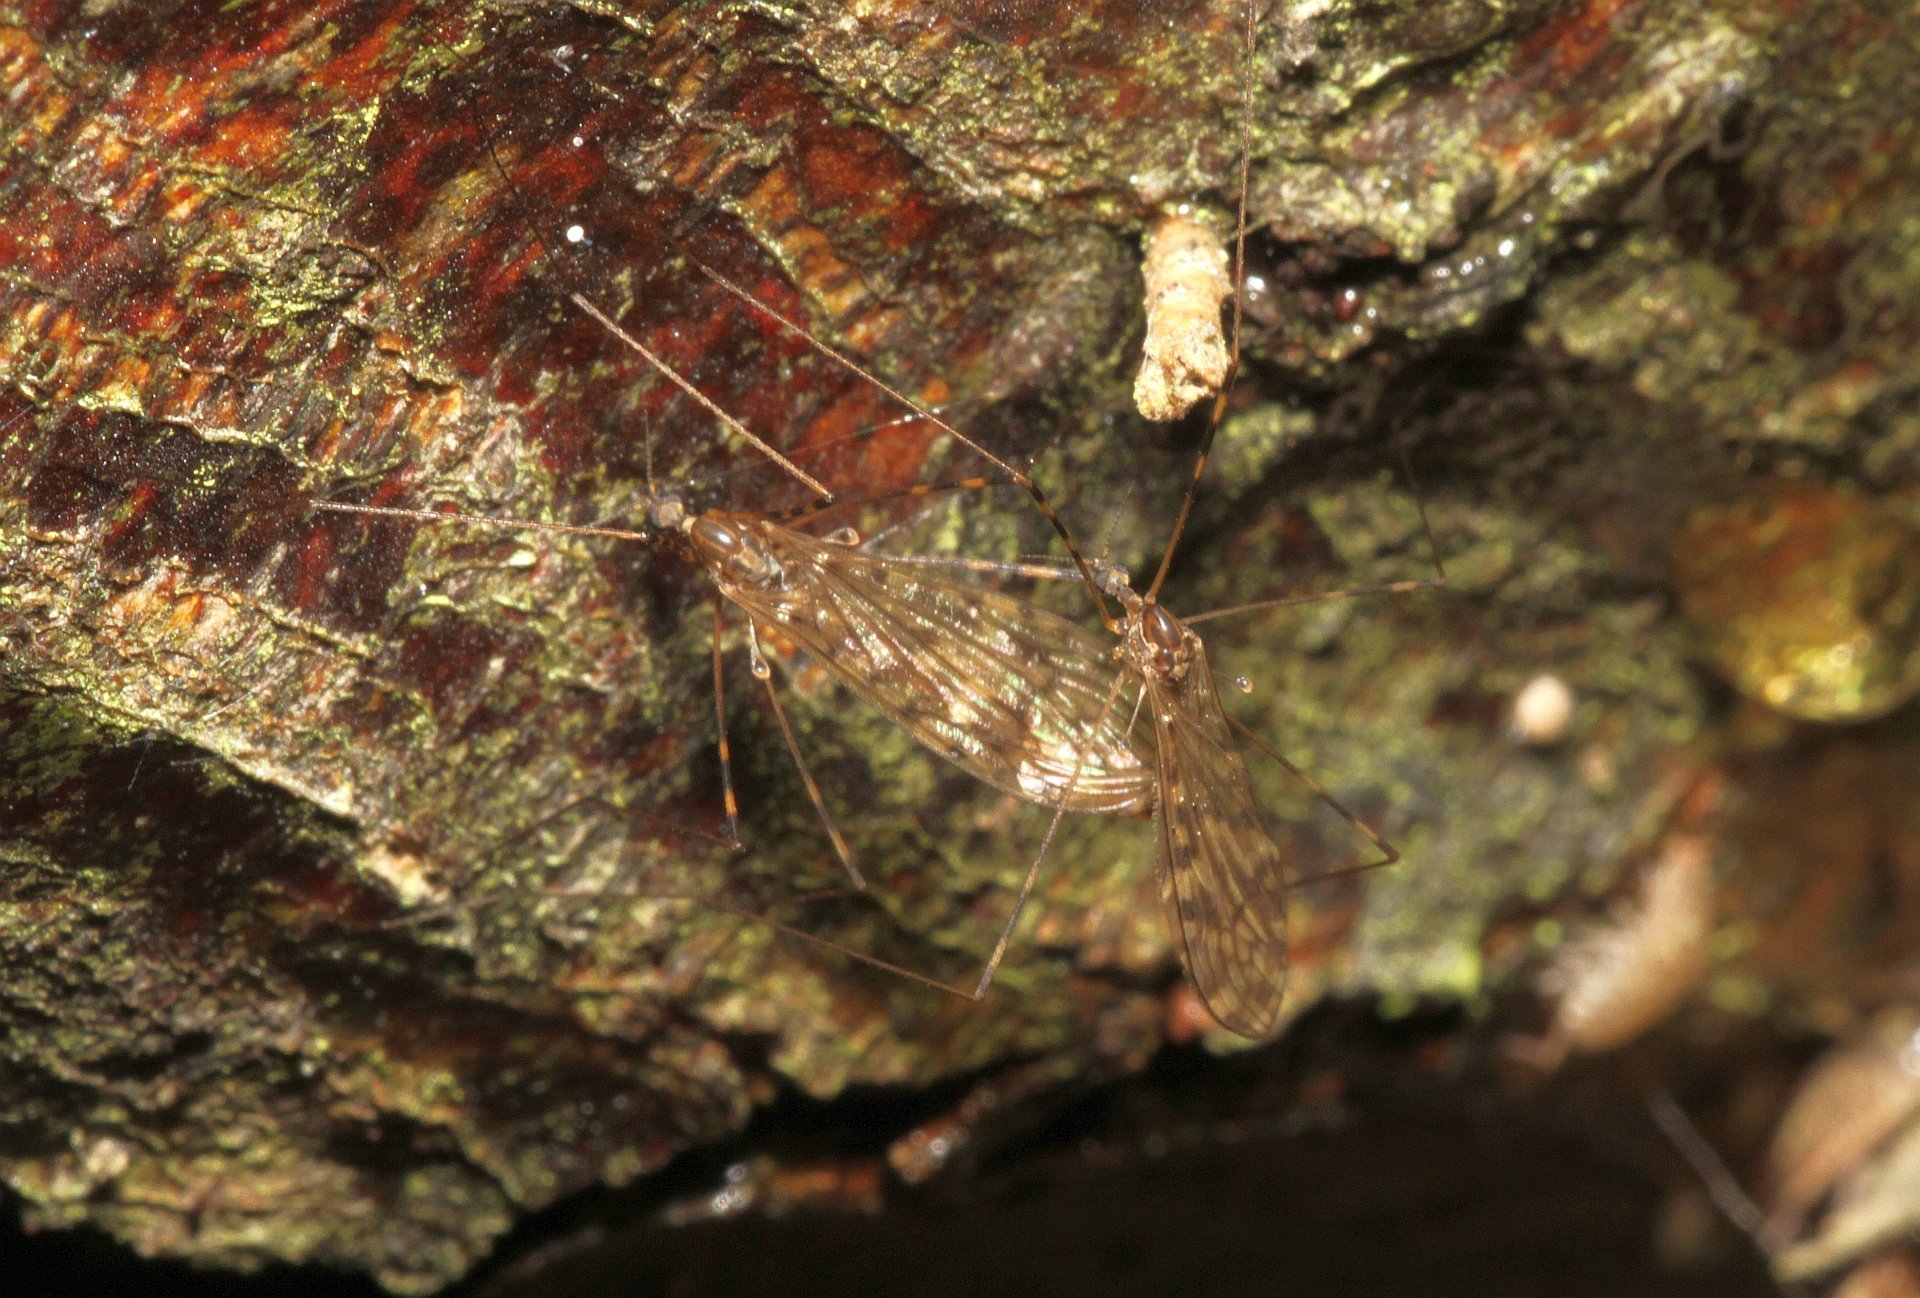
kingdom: Animalia
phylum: Arthropoda
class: Insecta
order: Diptera
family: Limoniidae
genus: Limonia
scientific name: Limonia nubeculosa
